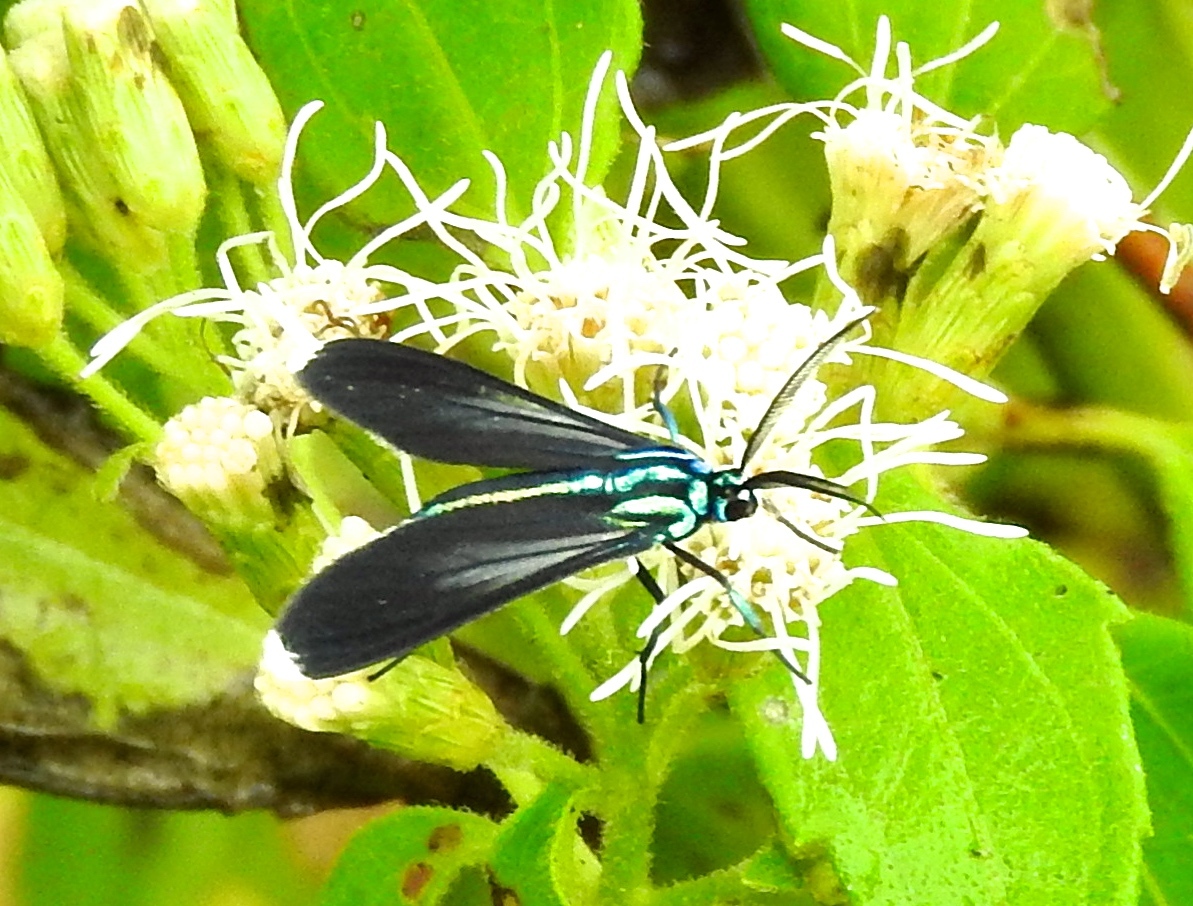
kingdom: Animalia
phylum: Arthropoda
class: Insecta
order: Lepidoptera
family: Erebidae
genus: Uranophora
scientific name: Uranophora leucotela
